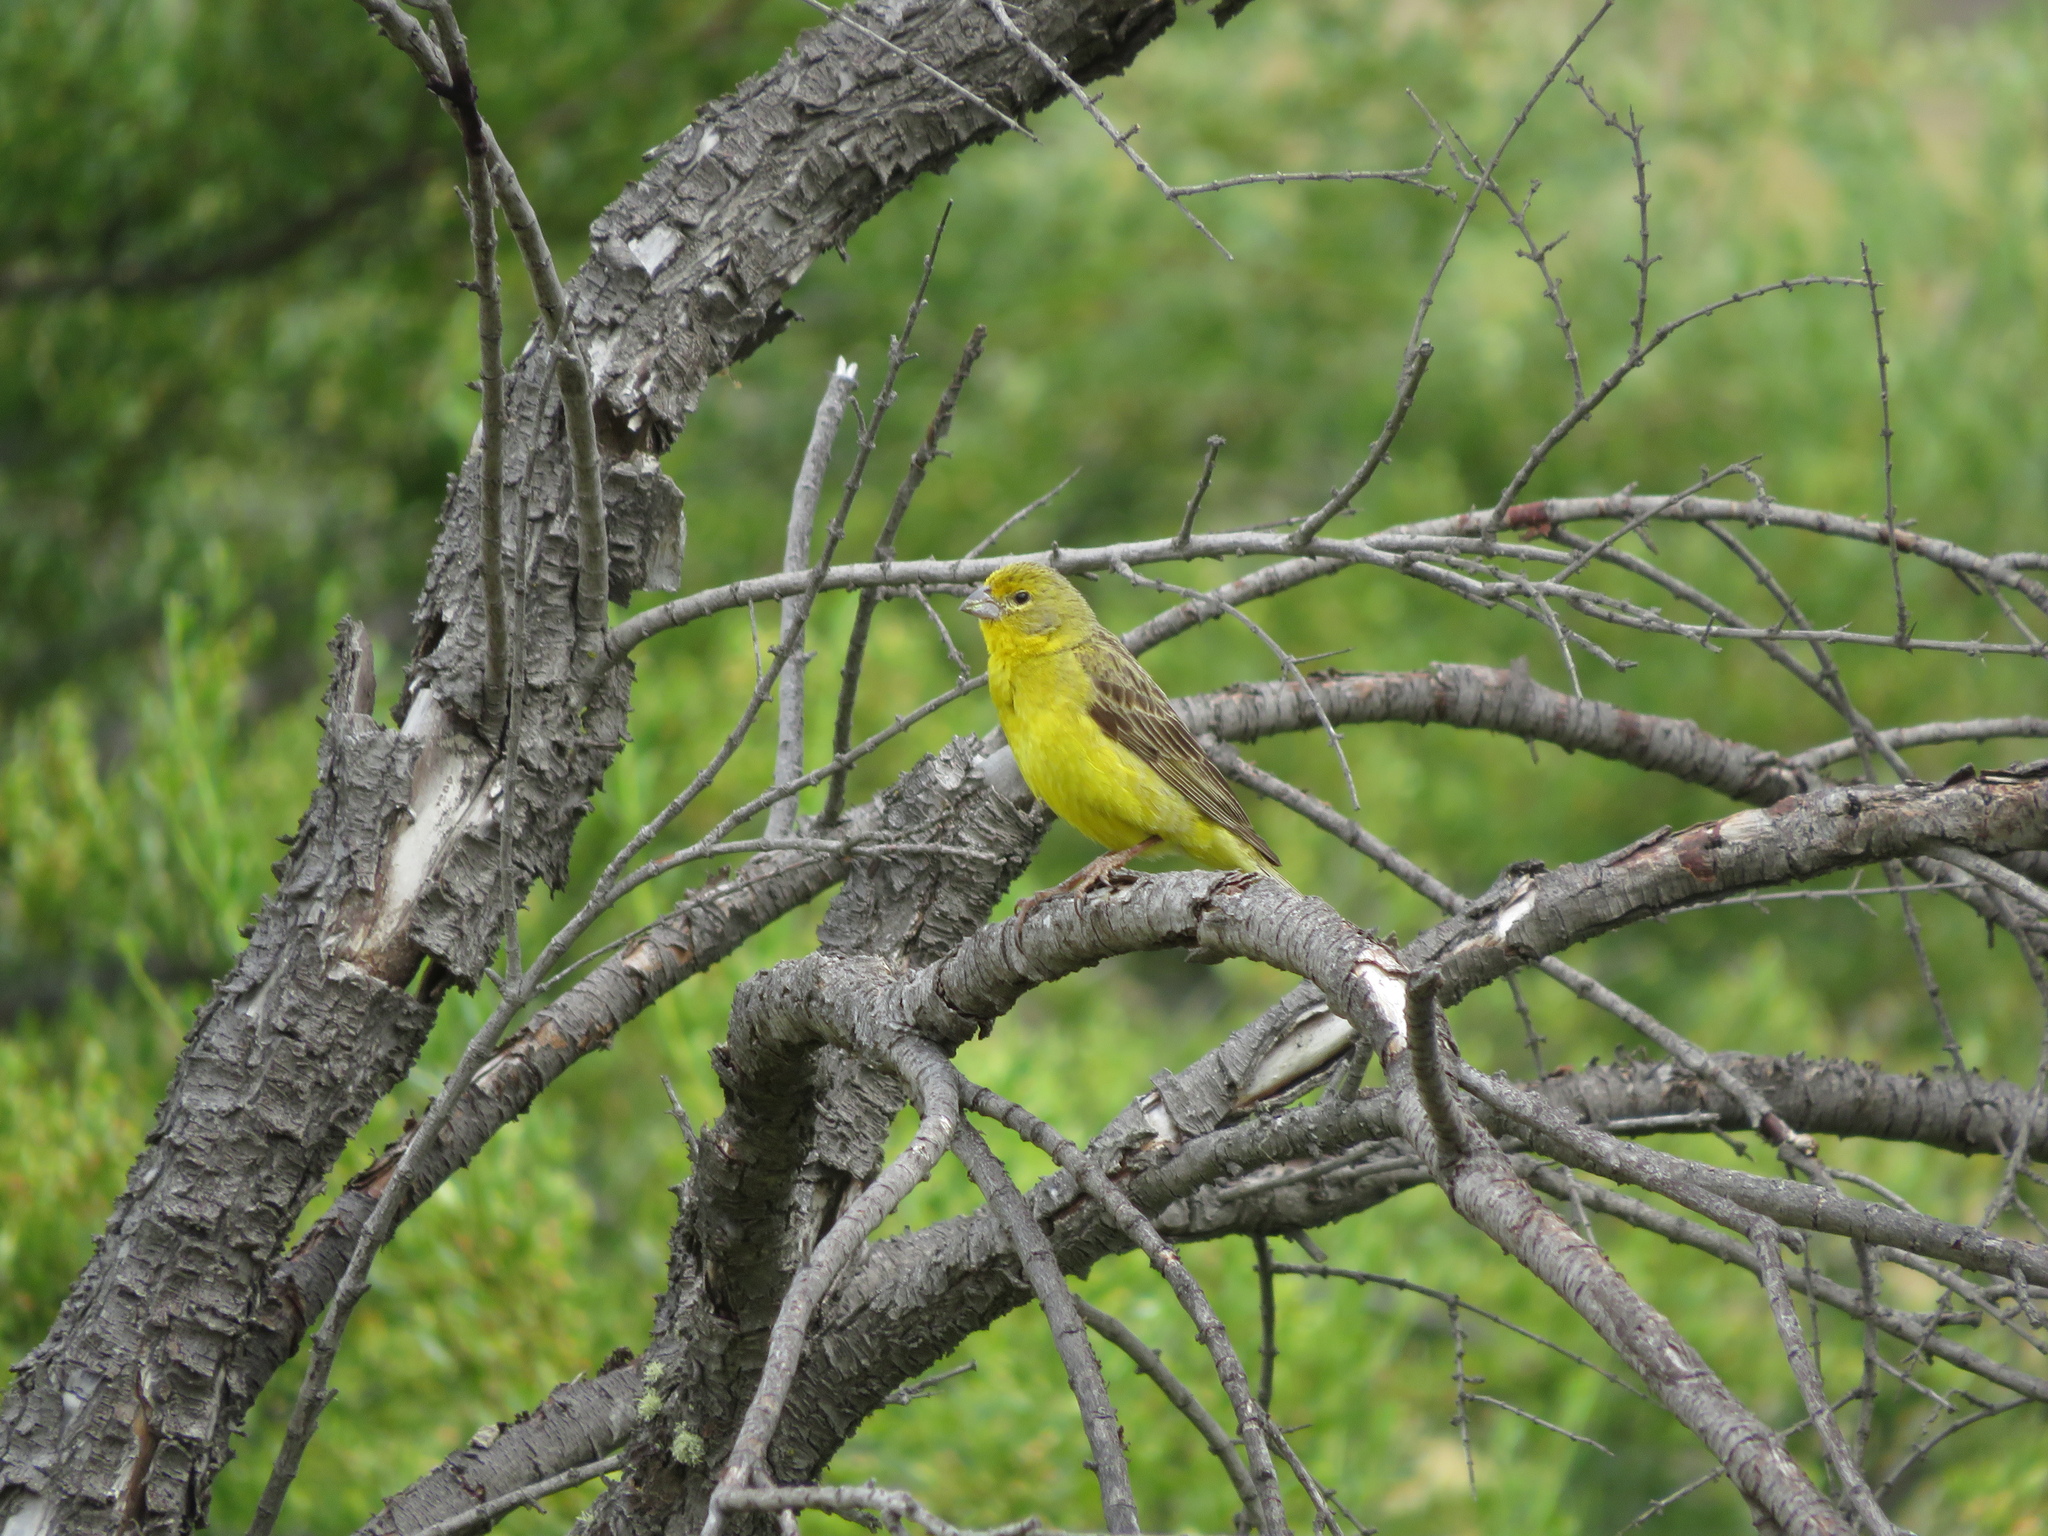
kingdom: Animalia
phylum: Chordata
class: Aves
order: Passeriformes
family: Thraupidae
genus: Sicalis
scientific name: Sicalis luteola
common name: Grassland yellow-finch
